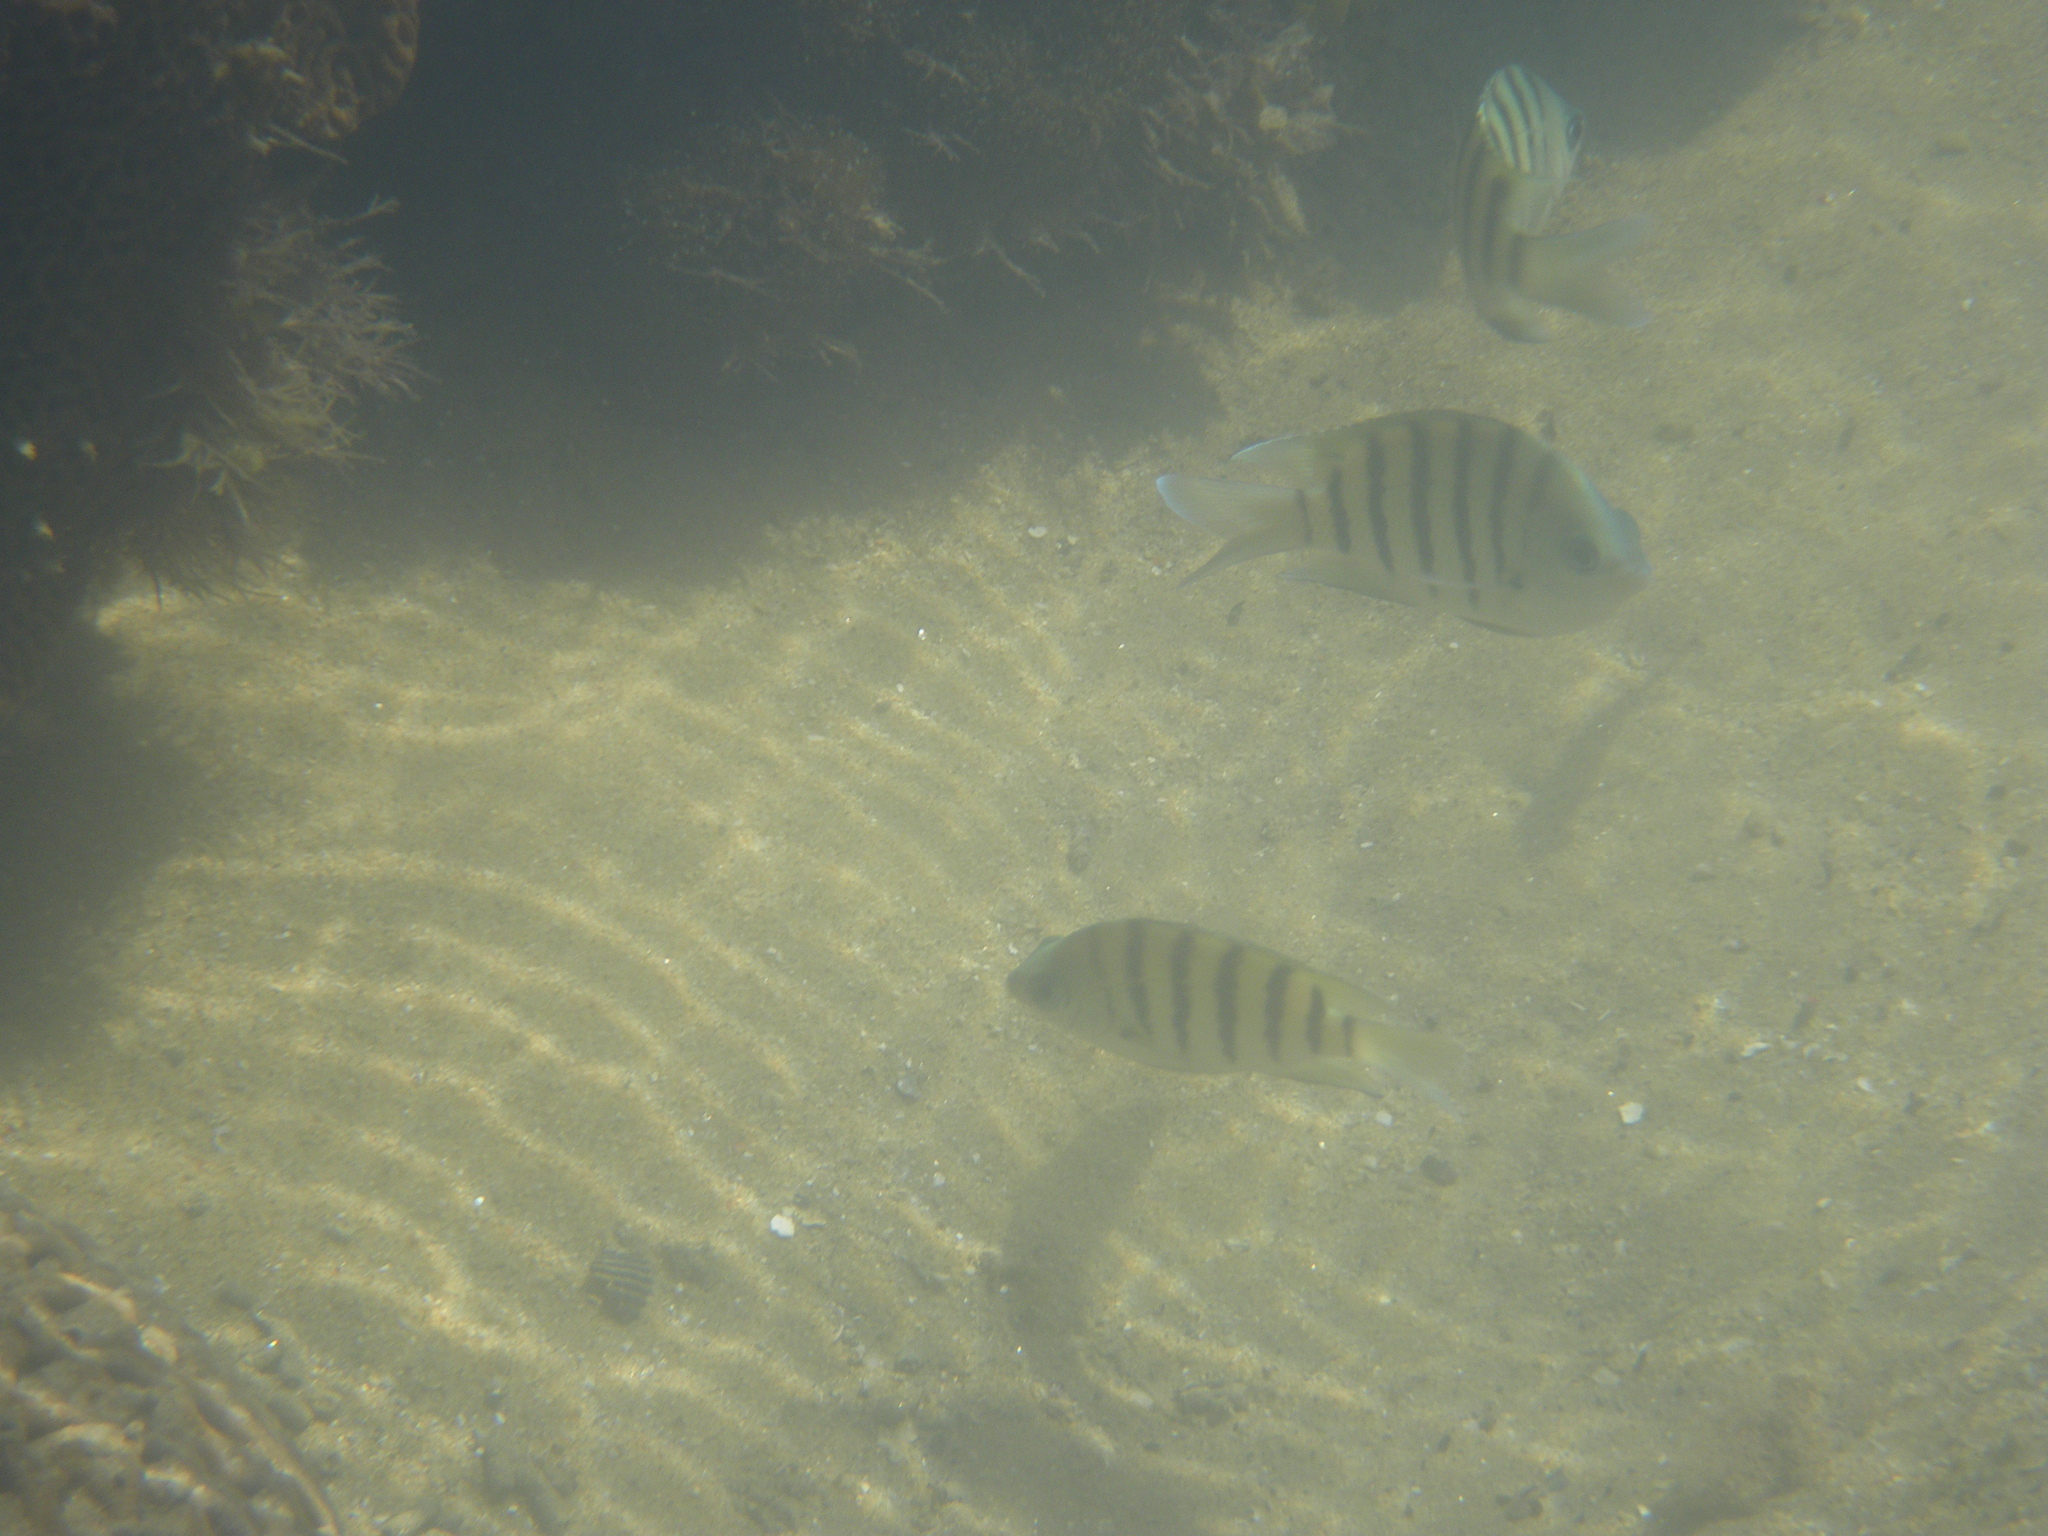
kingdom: Animalia
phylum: Chordata
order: Perciformes
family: Pomacentridae
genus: Abudefduf
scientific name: Abudefduf bengalensis
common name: Bengal sergeant
